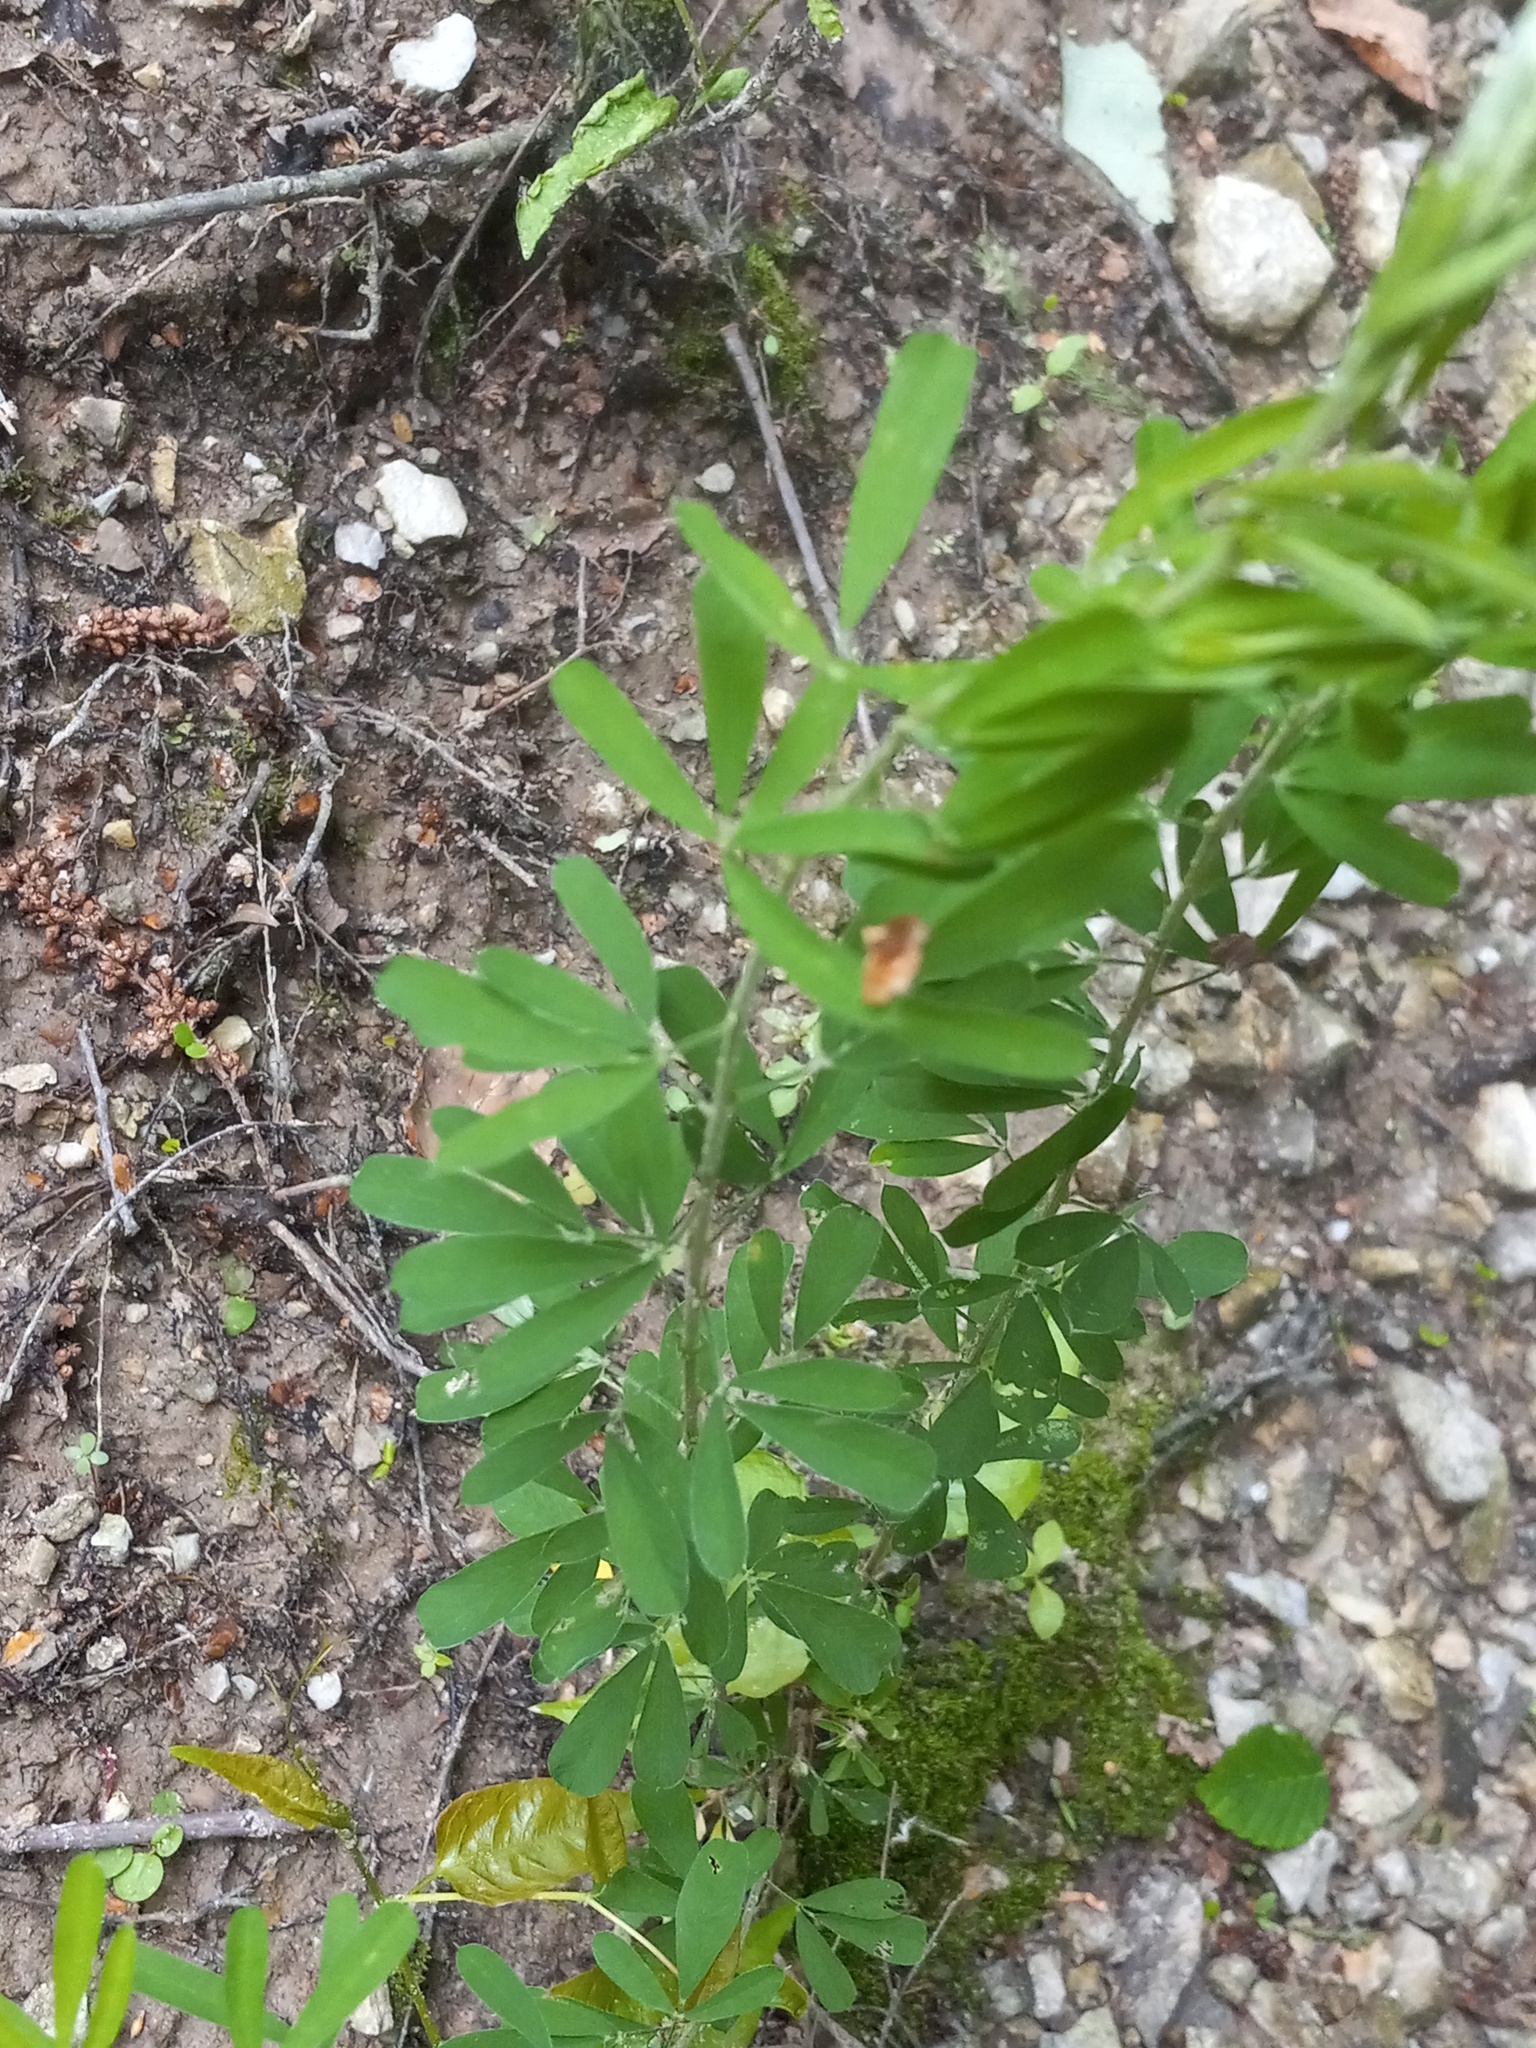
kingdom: Plantae
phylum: Tracheophyta
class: Magnoliopsida
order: Fabales
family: Fabaceae
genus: Lespedeza
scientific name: Lespedeza cuneata
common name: Chinese bush-clover
